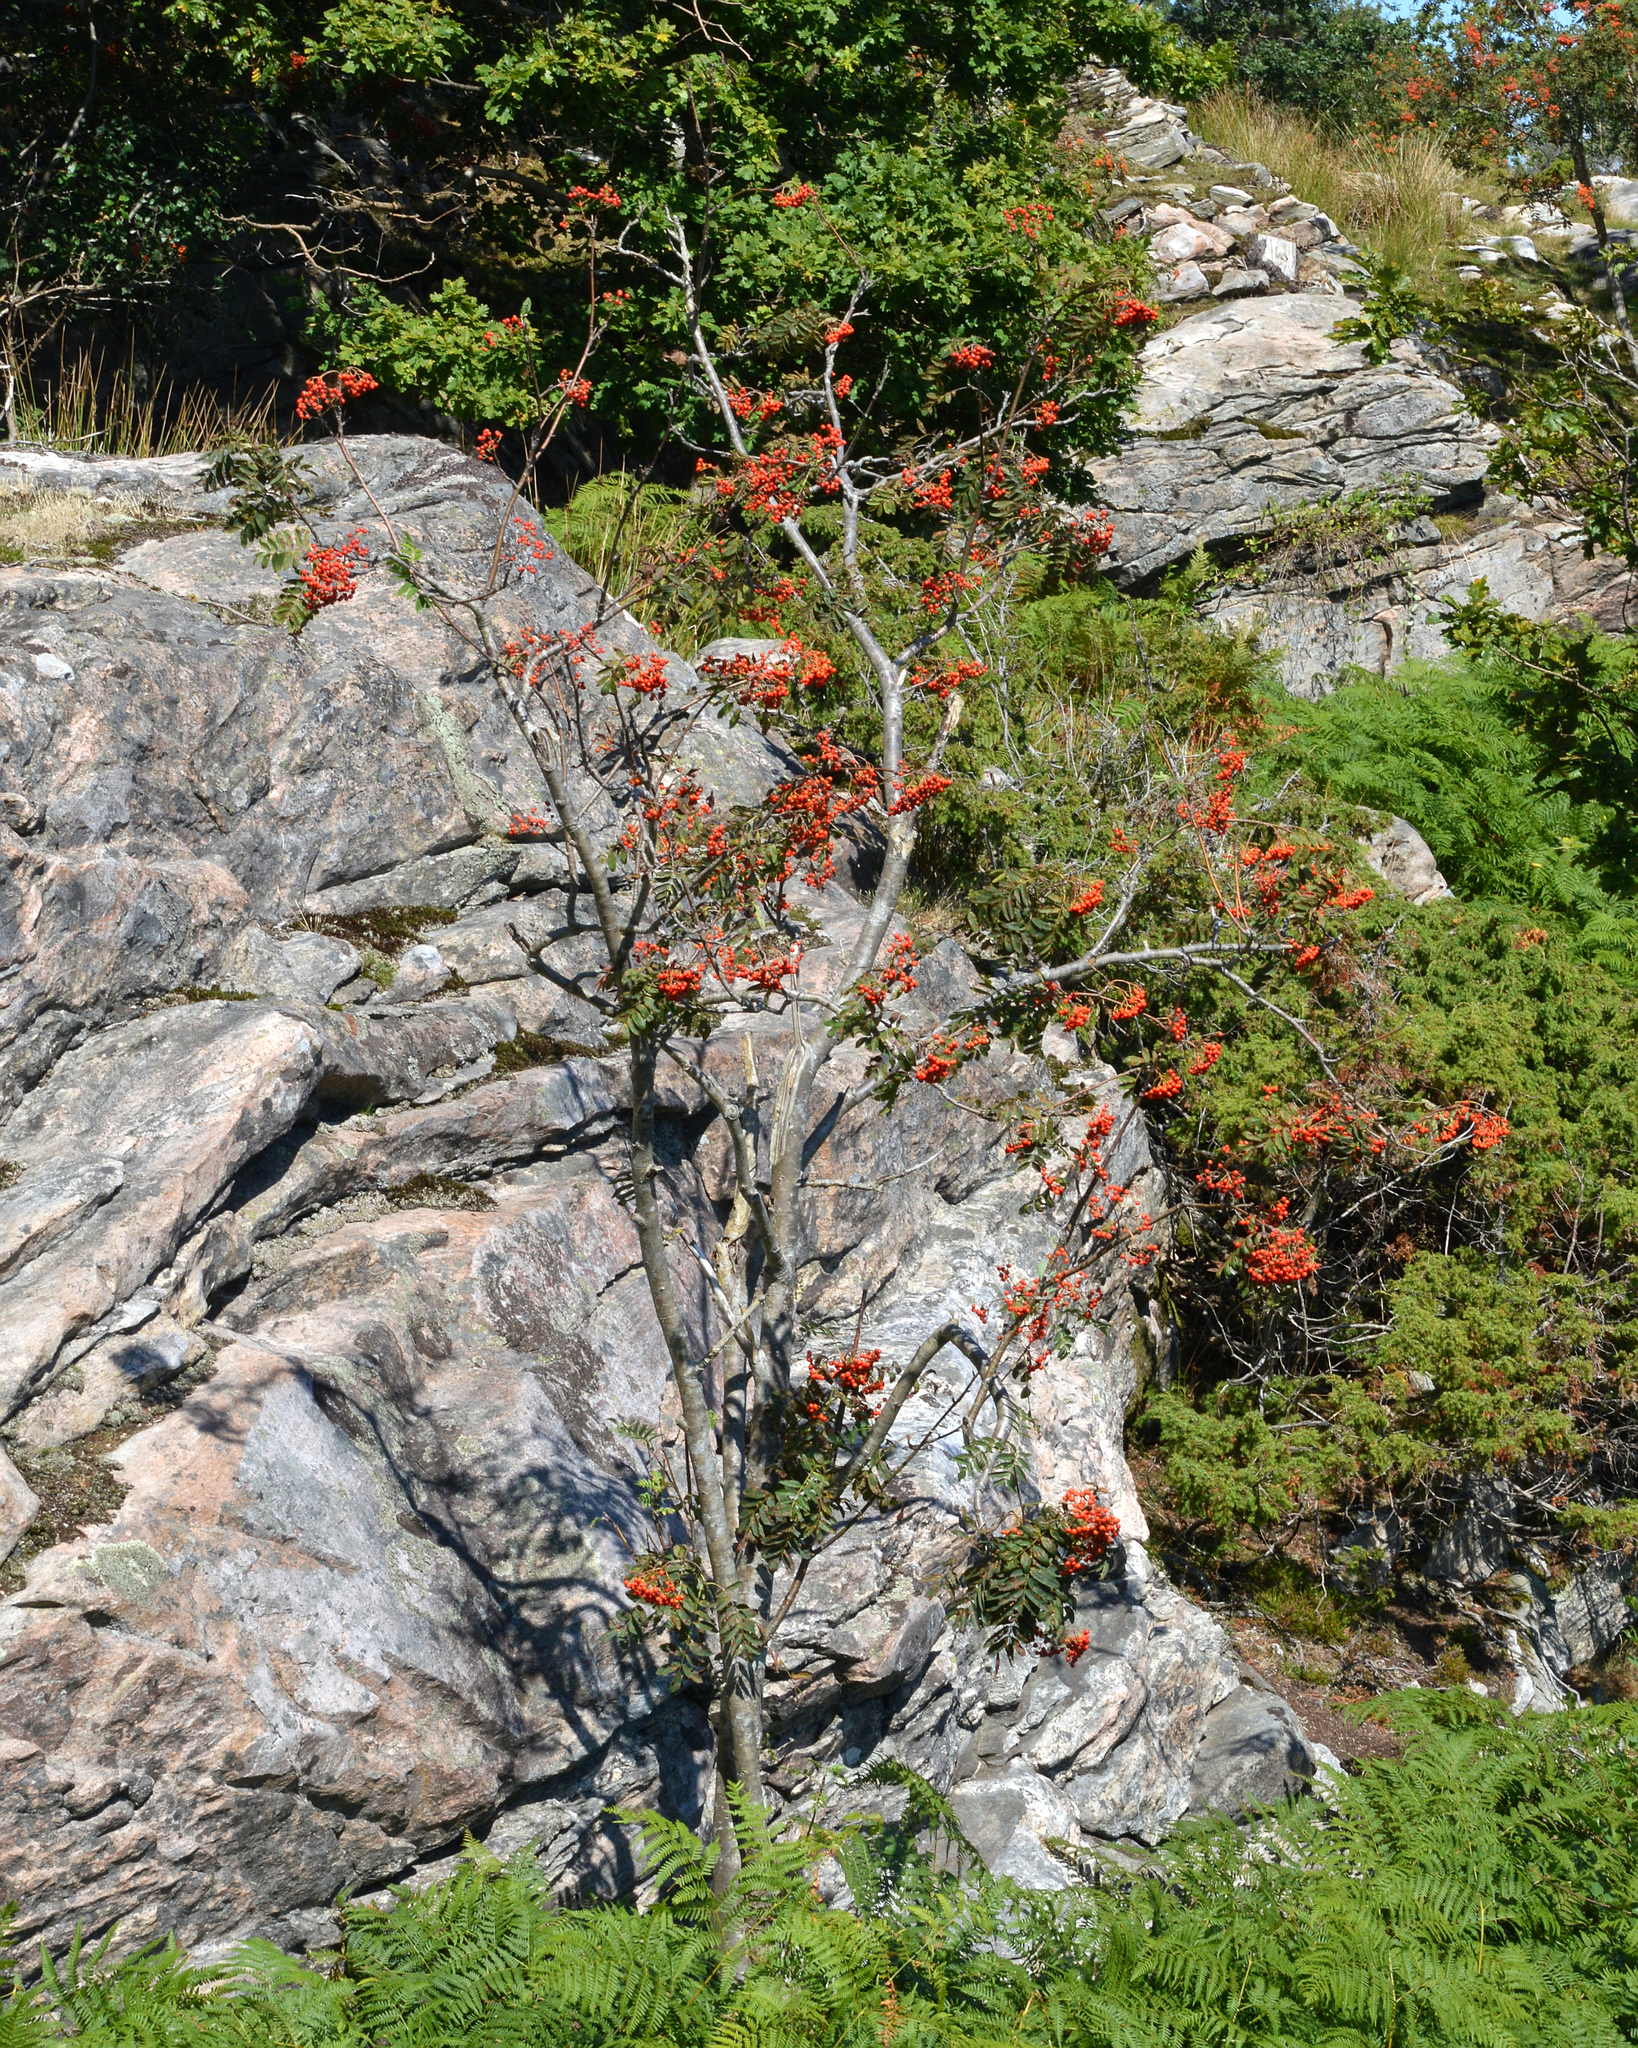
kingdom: Plantae
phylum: Tracheophyta
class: Magnoliopsida
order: Rosales
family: Rosaceae
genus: Sorbus
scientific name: Sorbus aucuparia
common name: Rowan
